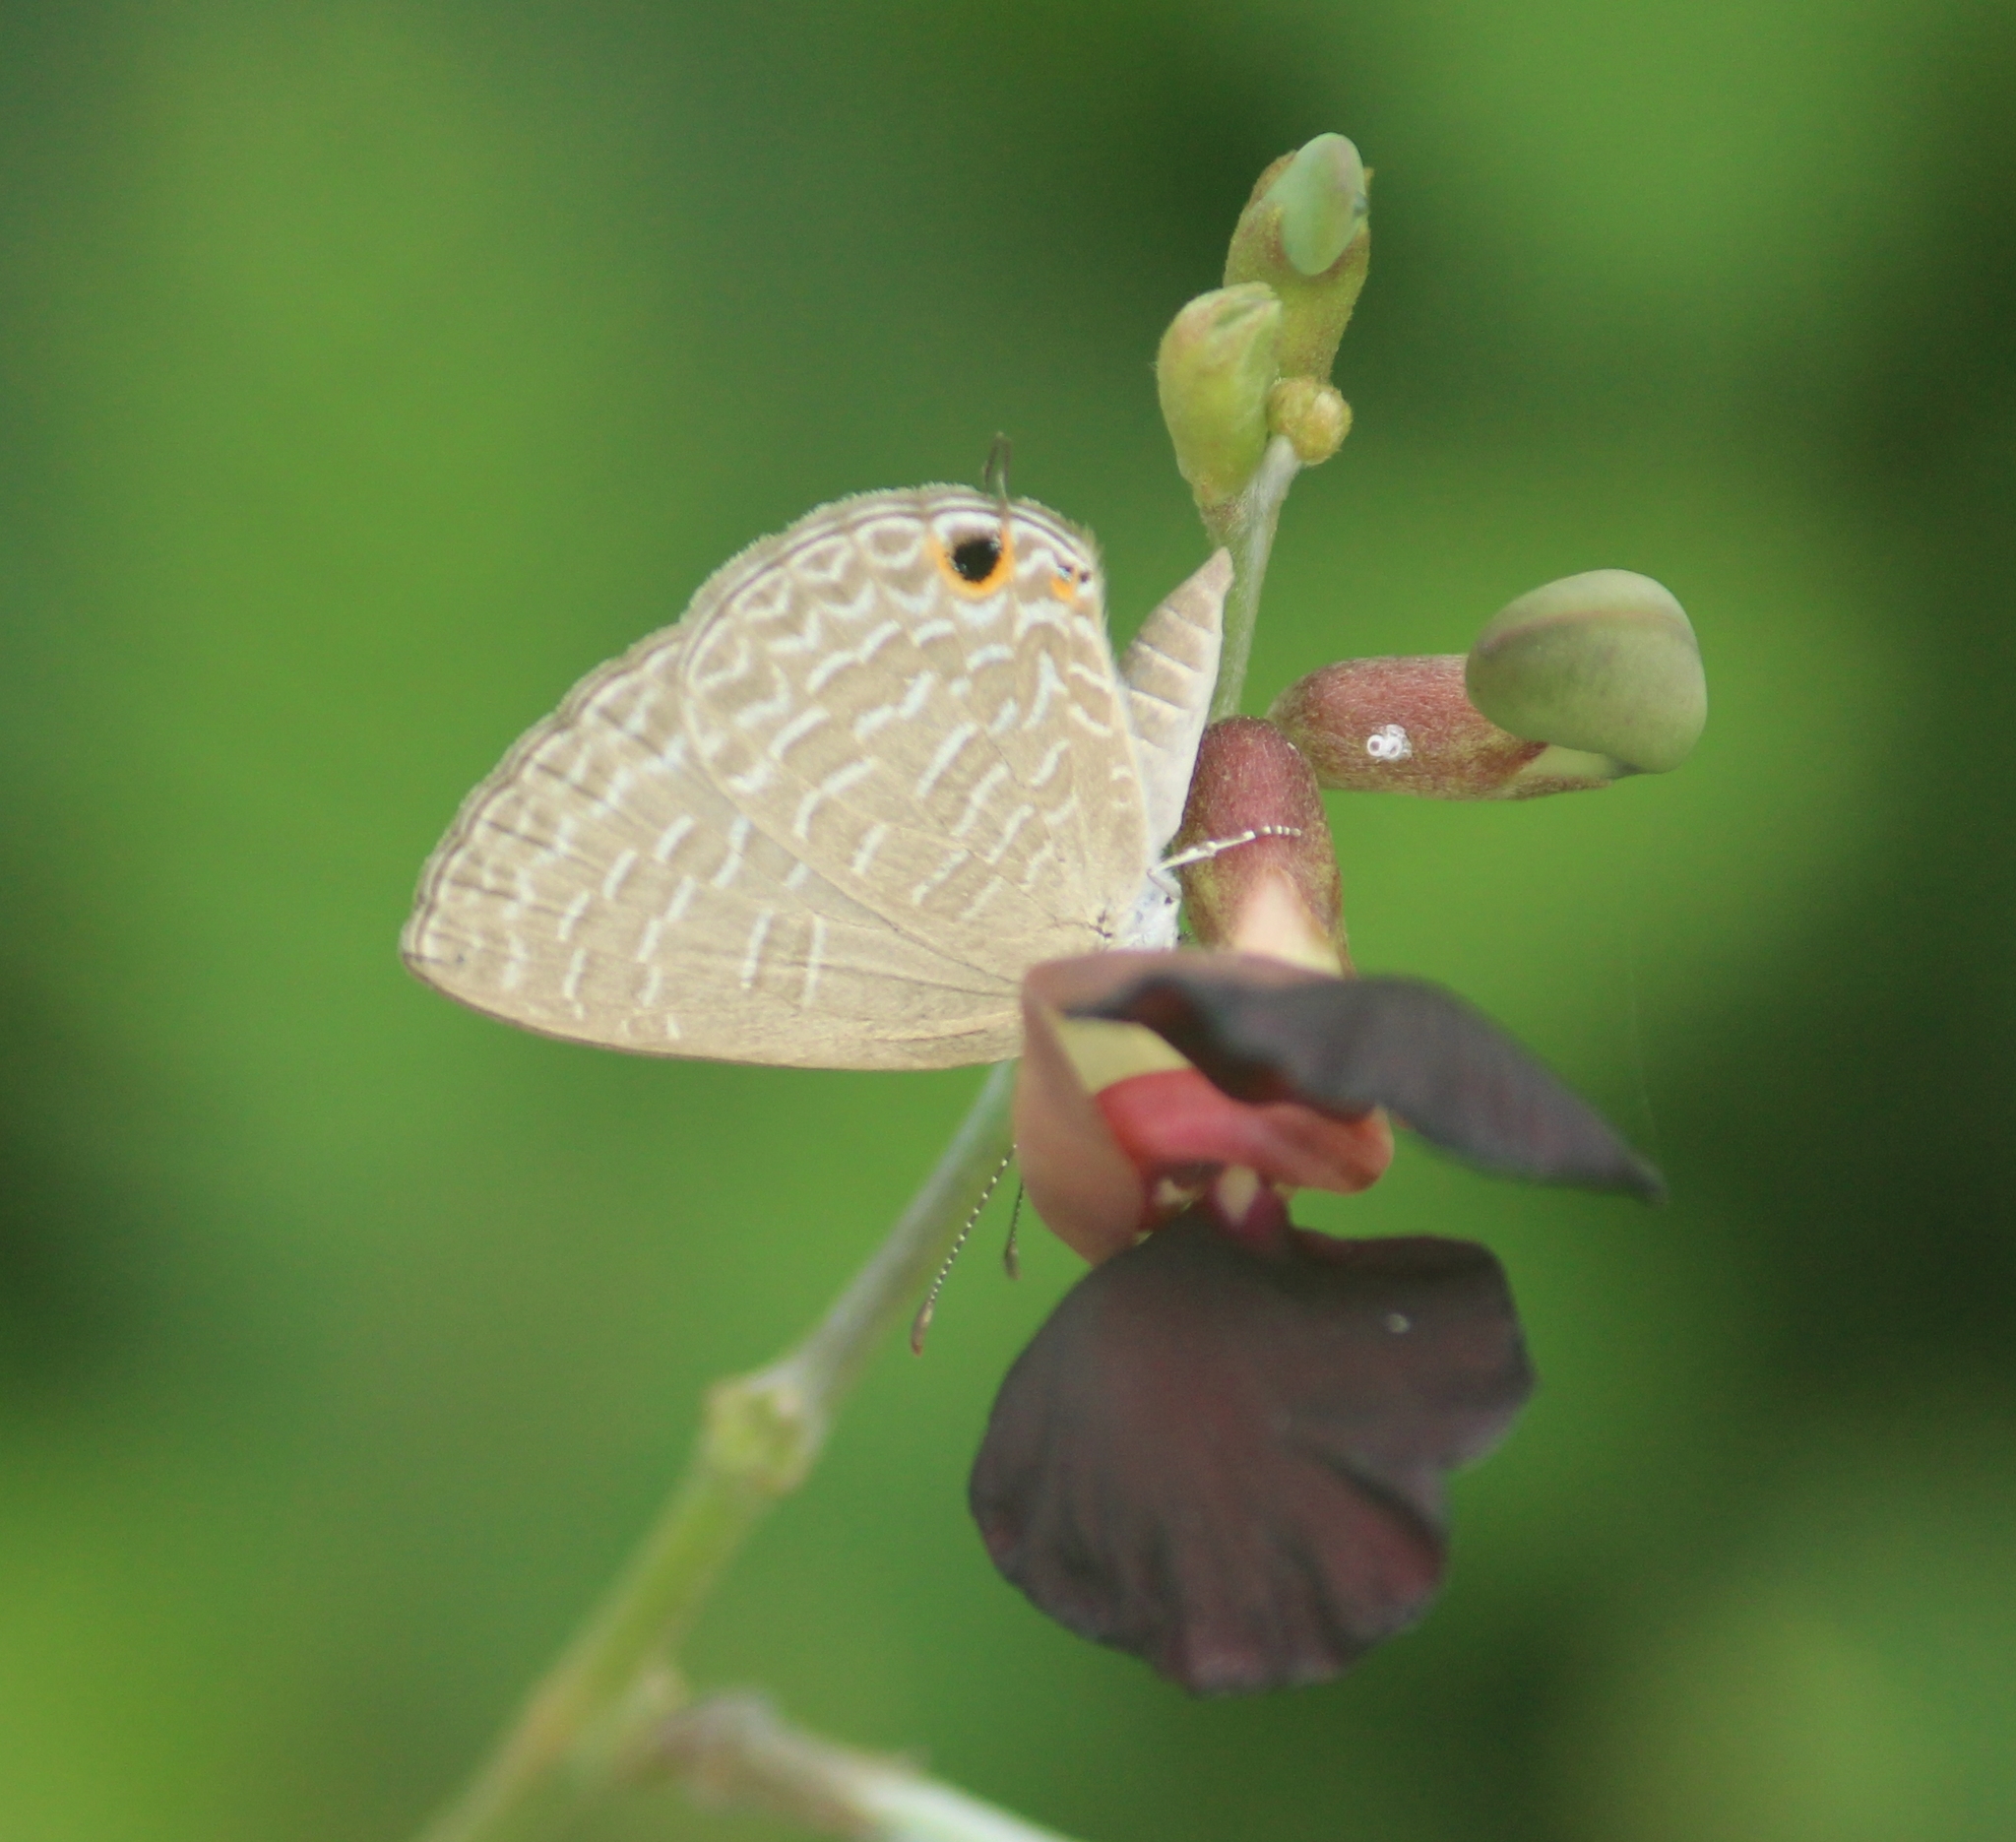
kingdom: Animalia
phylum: Arthropoda
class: Insecta
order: Lepidoptera
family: Lycaenidae
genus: Jamides
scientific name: Jamides bochus
